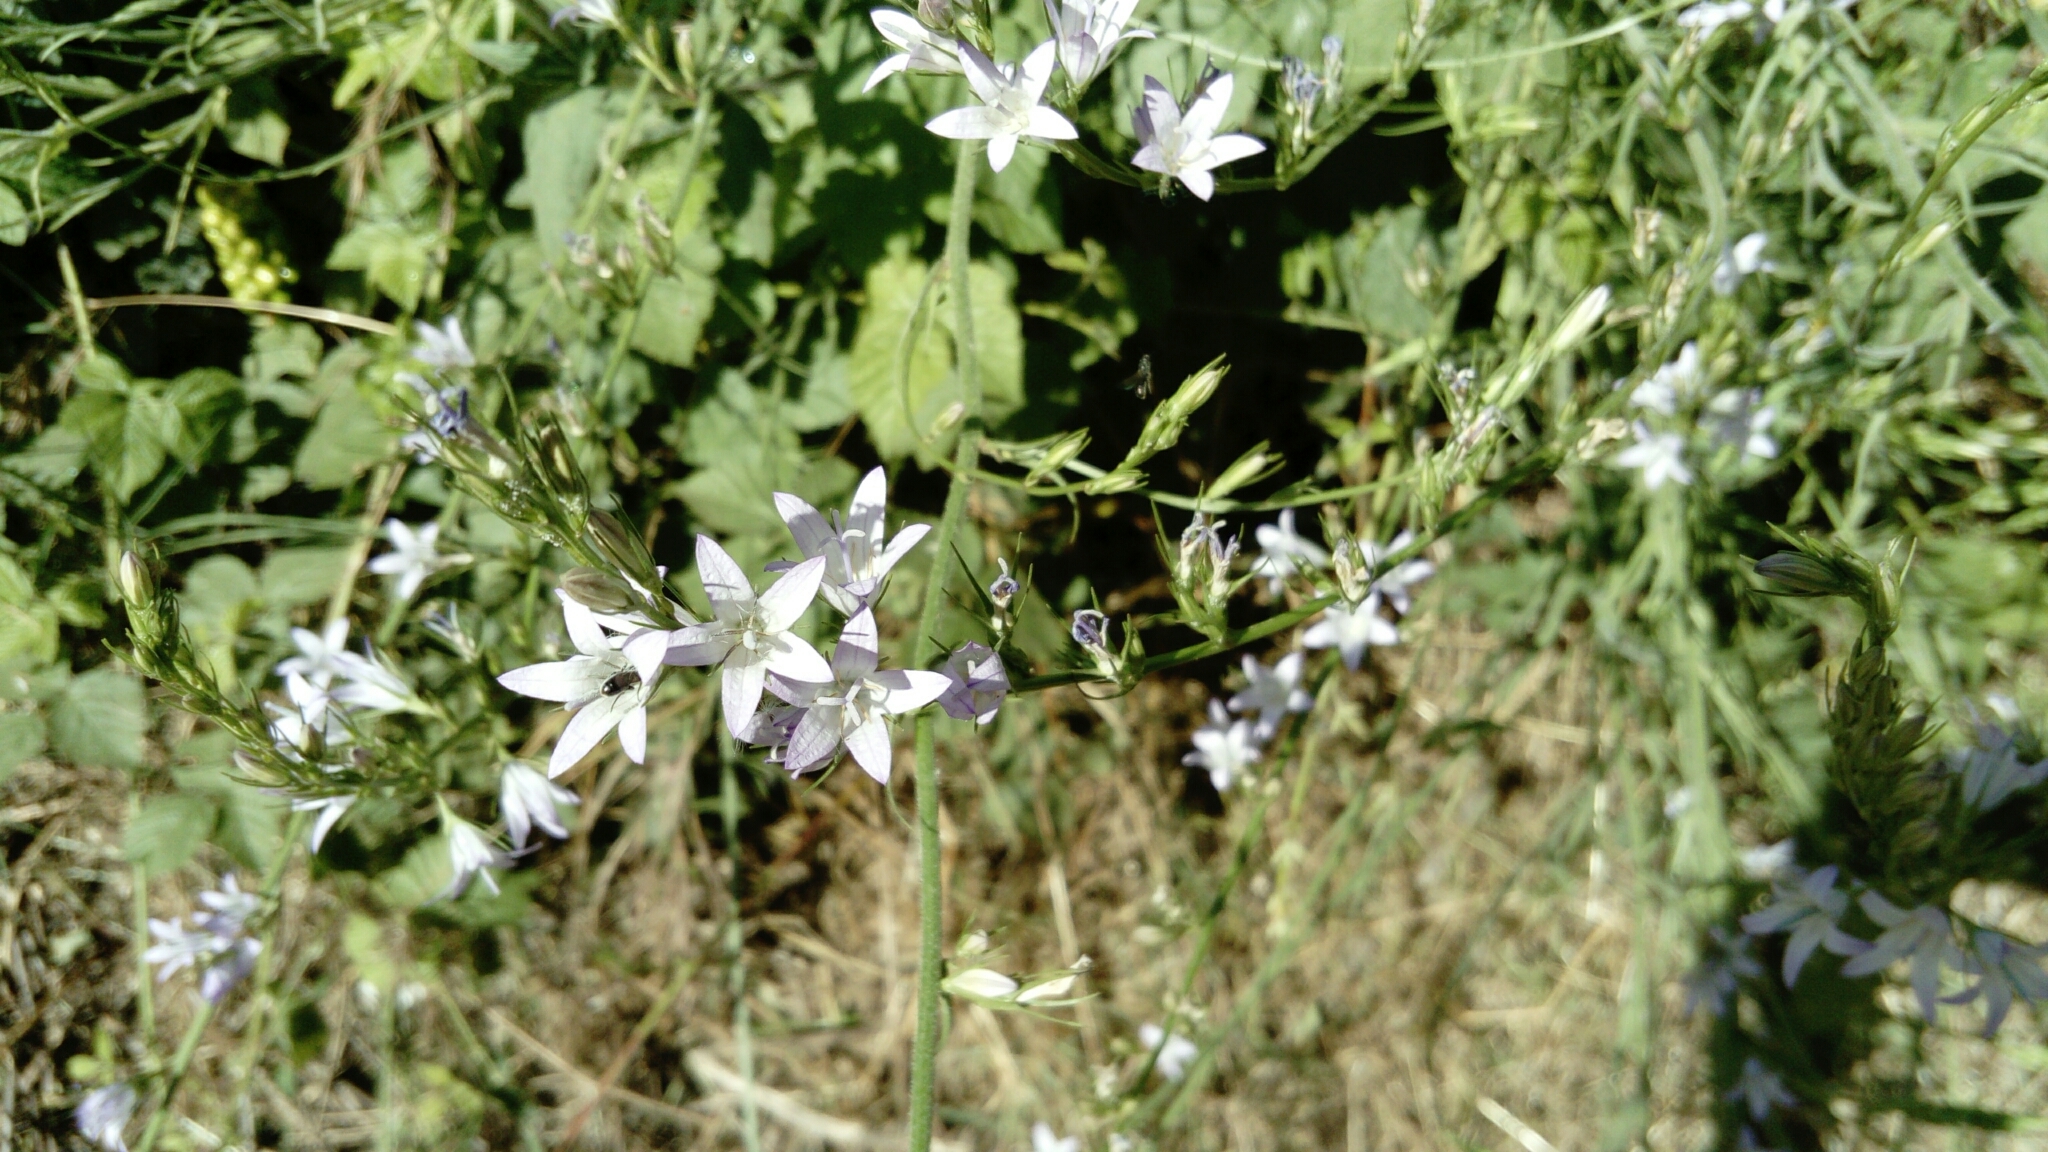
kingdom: Plantae
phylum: Tracheophyta
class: Magnoliopsida
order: Asterales
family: Campanulaceae
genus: Campanula
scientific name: Campanula rapunculus
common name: Rampion bellflower
